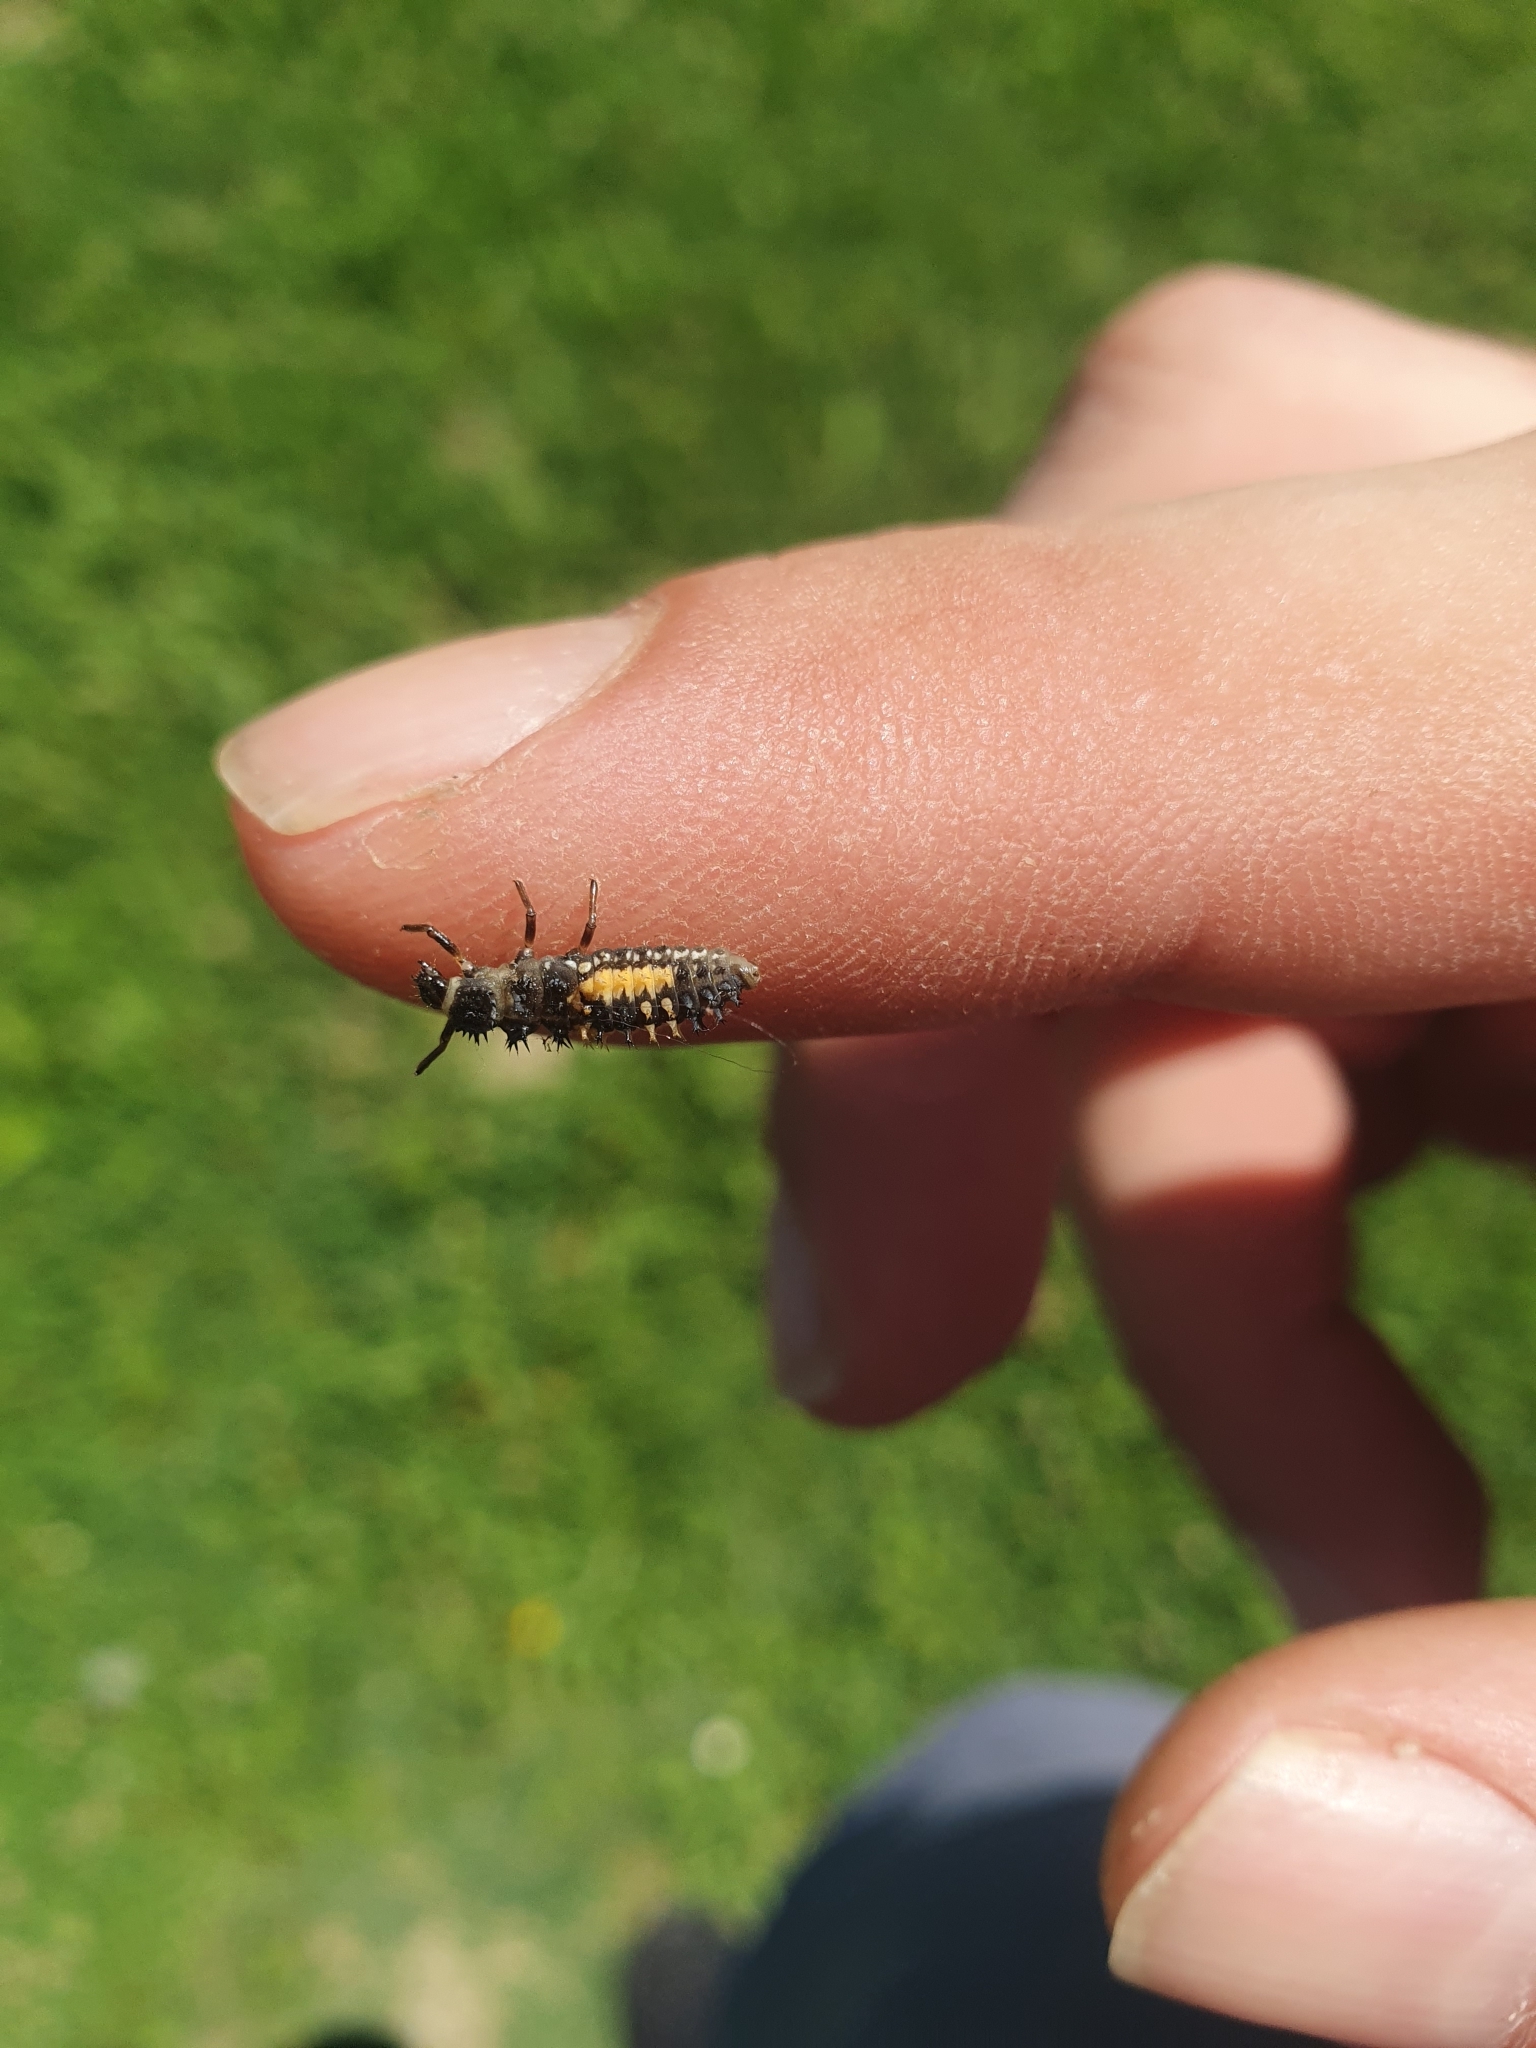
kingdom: Animalia
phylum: Arthropoda
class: Insecta
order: Coleoptera
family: Coccinellidae
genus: Harmonia
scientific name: Harmonia axyridis
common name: Harlequin ladybird
